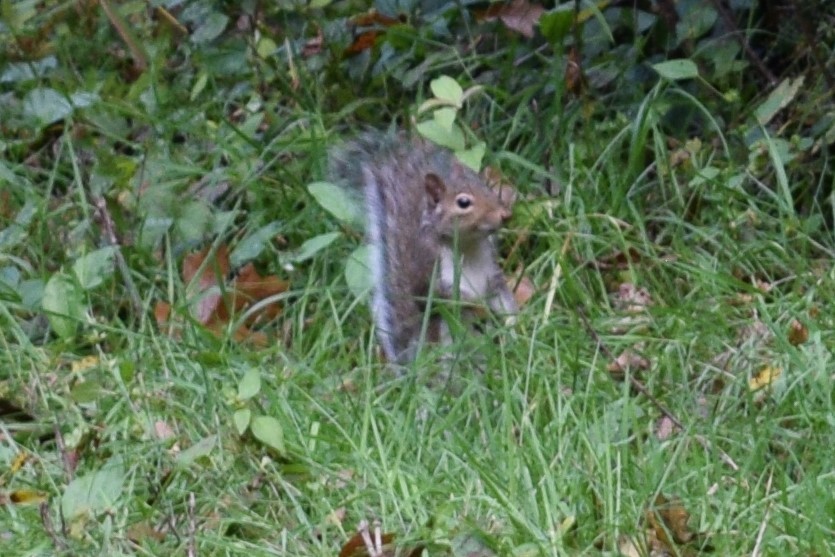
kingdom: Animalia
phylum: Chordata
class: Mammalia
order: Rodentia
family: Sciuridae
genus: Sciurus
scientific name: Sciurus carolinensis
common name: Eastern gray squirrel
